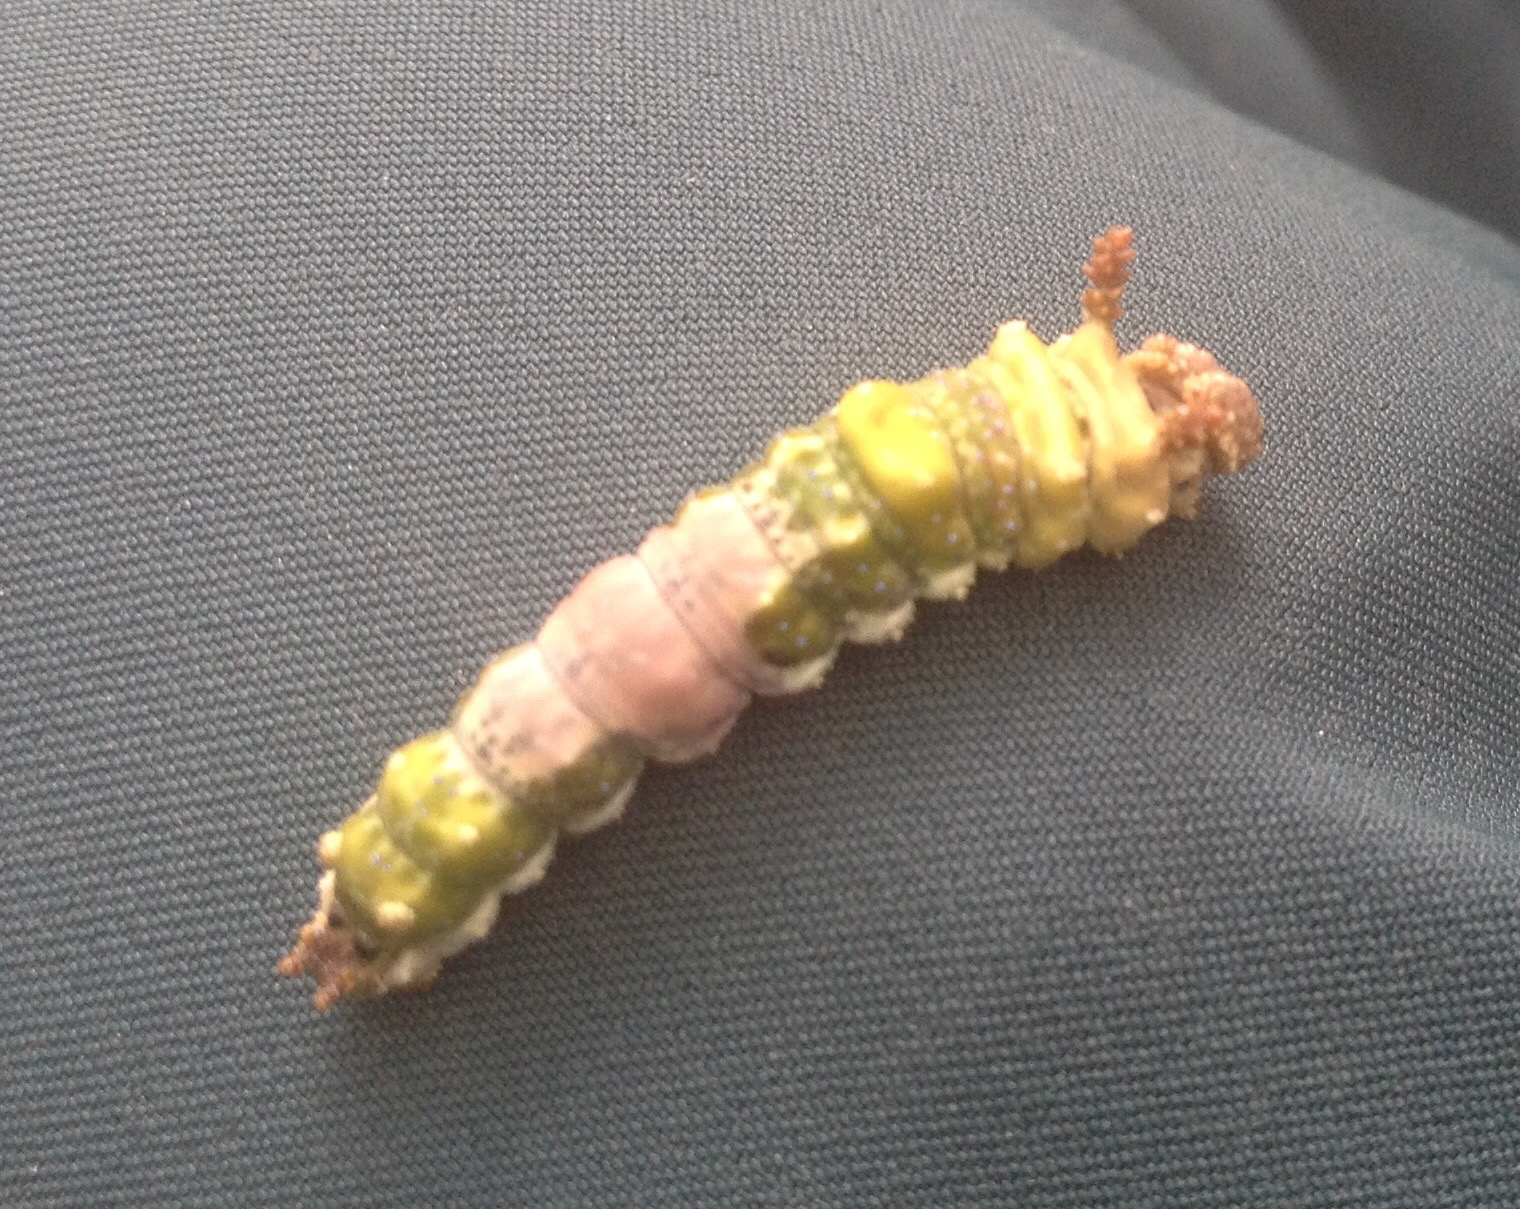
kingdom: Animalia
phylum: Arthropoda
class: Insecta
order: Lepidoptera
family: Nymphalidae
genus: Limenitis
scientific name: Limenitis arthemis
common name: Red-spotted admiral
